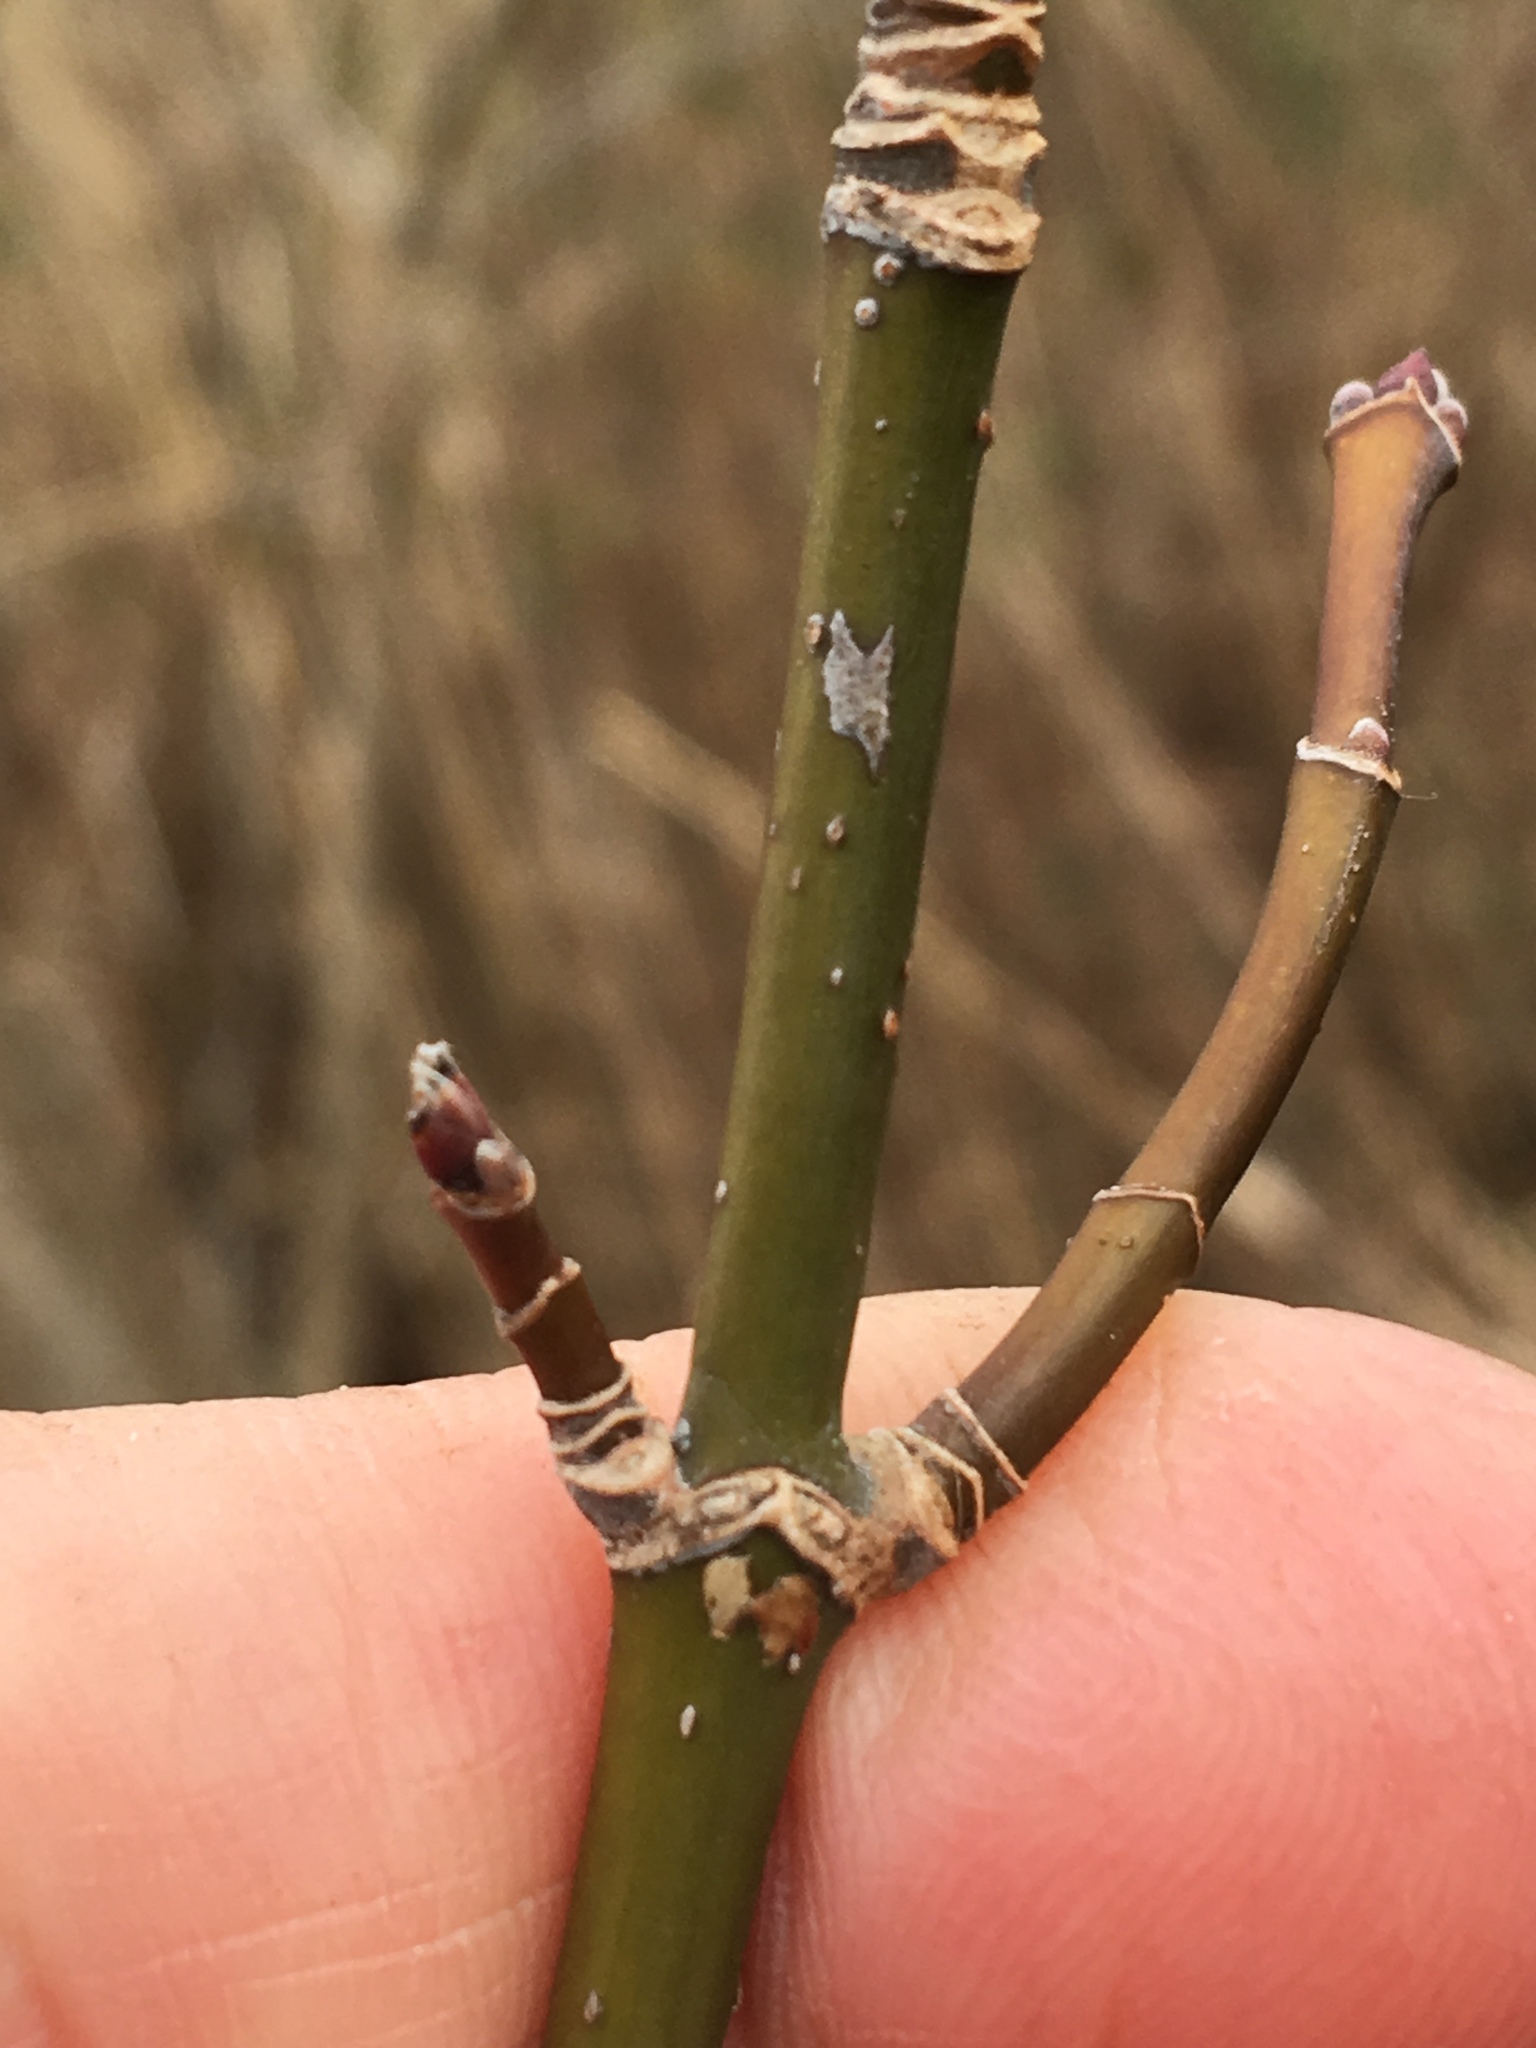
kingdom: Plantae
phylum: Tracheophyta
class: Magnoliopsida
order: Sapindales
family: Sapindaceae
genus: Acer
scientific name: Acer negundo
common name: Ashleaf maple
